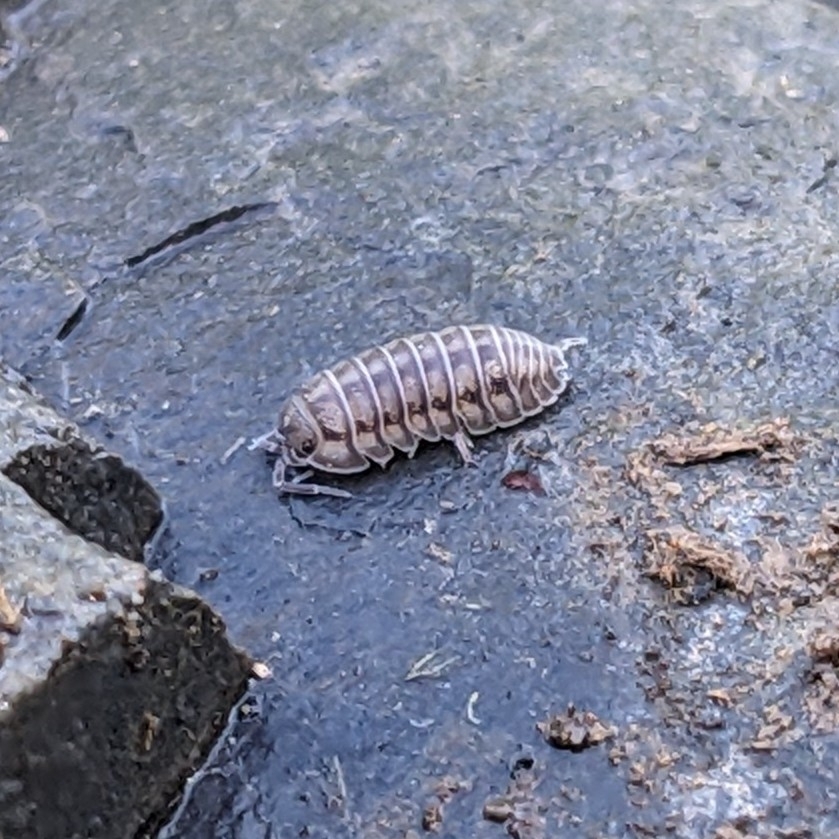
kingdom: Animalia
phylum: Arthropoda
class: Malacostraca
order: Isopoda
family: Armadillidiidae
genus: Armadillidium
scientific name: Armadillidium nasatum
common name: Isopod
